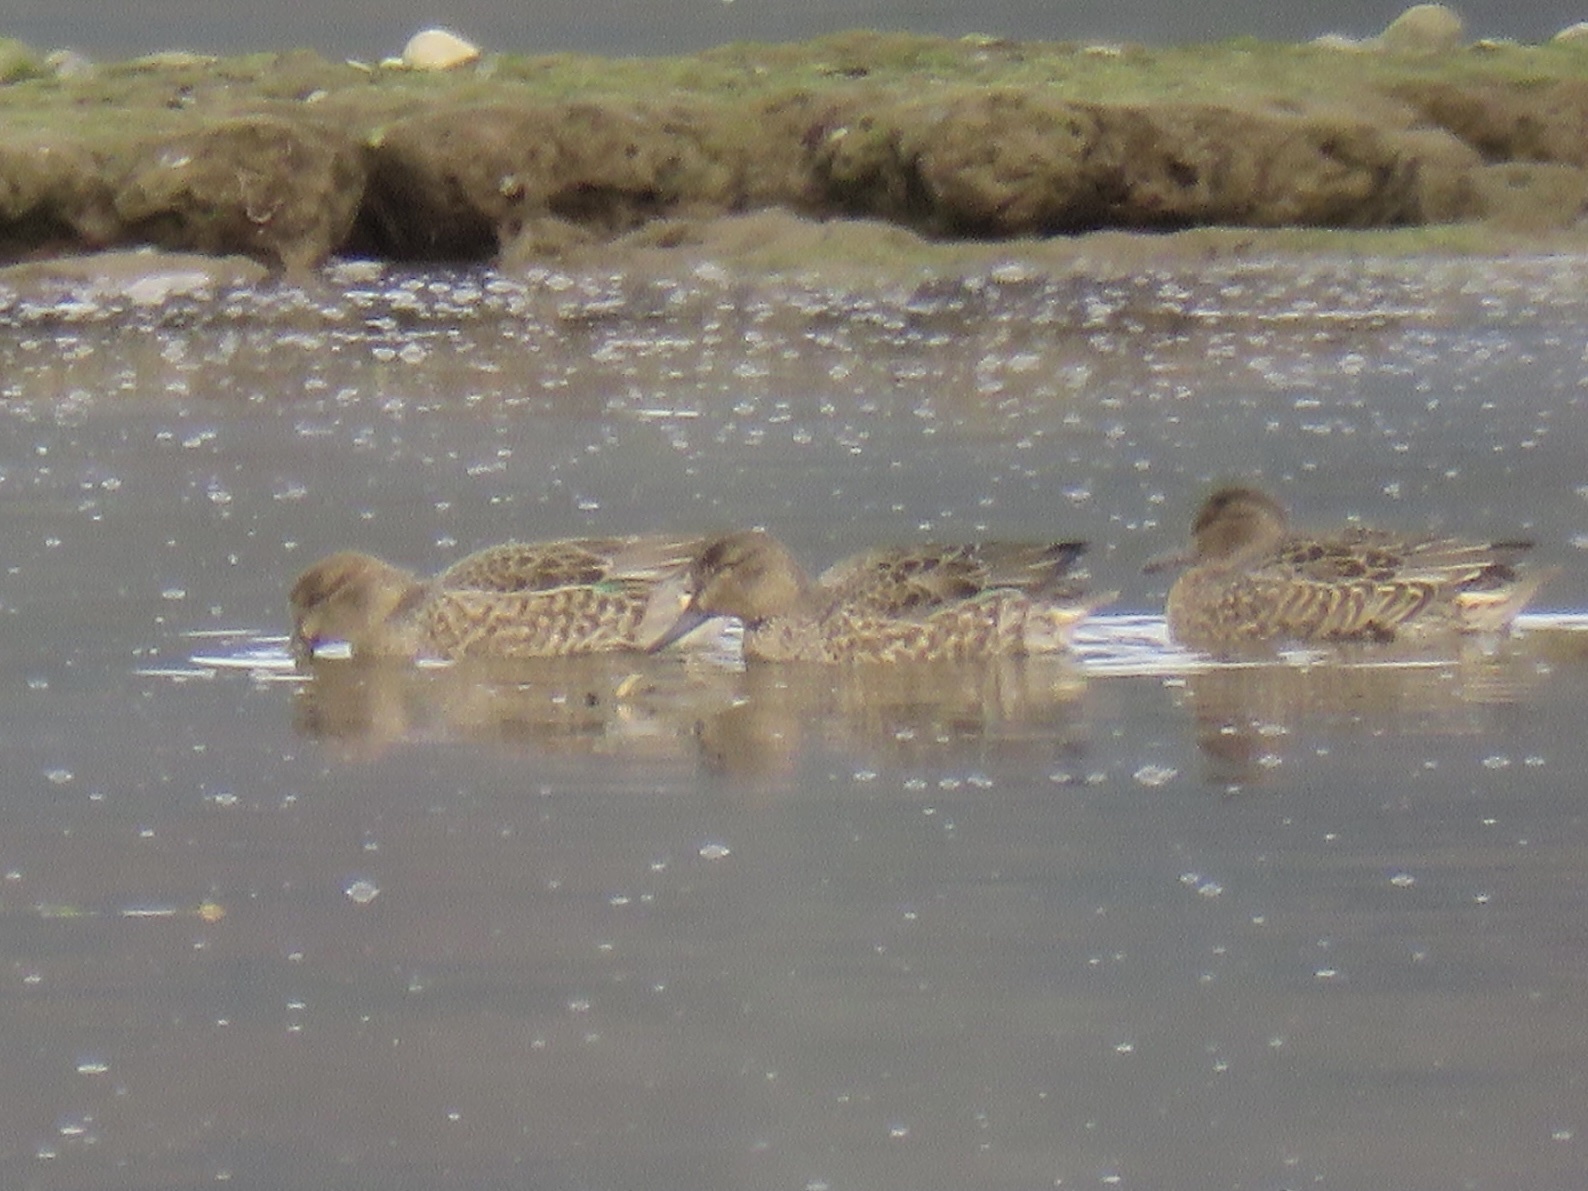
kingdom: Animalia
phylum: Chordata
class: Aves
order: Anseriformes
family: Anatidae
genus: Anas
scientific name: Anas crecca
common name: Eurasian teal
